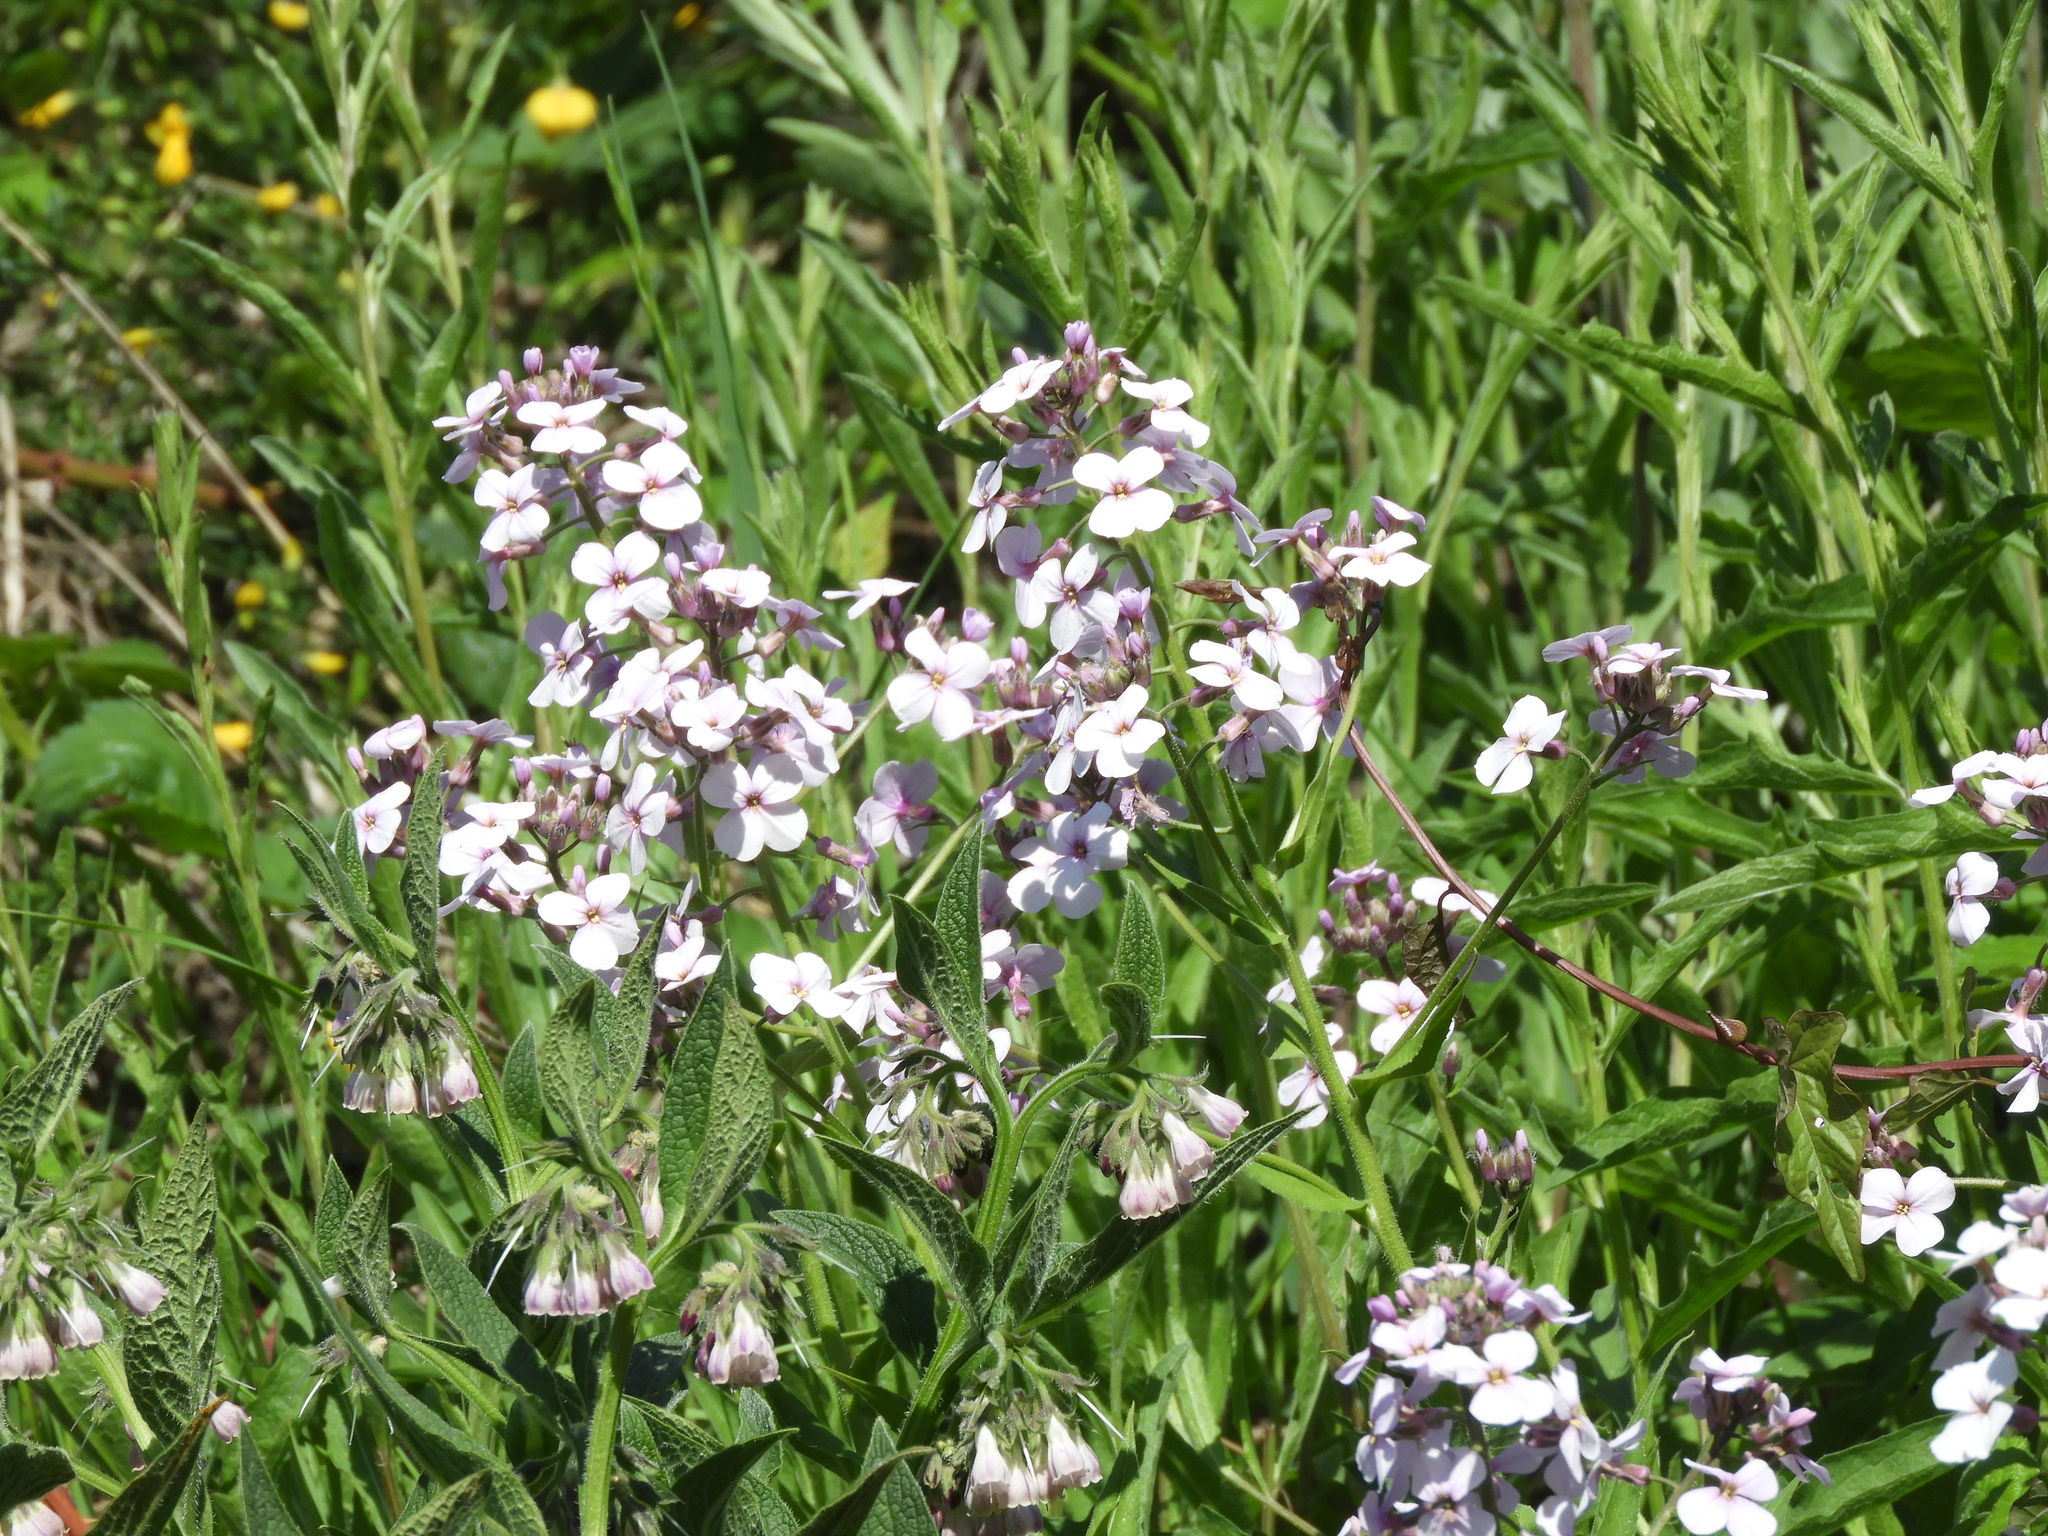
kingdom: Plantae
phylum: Tracheophyta
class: Magnoliopsida
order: Brassicales
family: Brassicaceae
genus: Hesperis
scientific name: Hesperis matronalis
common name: Dame's-violet
